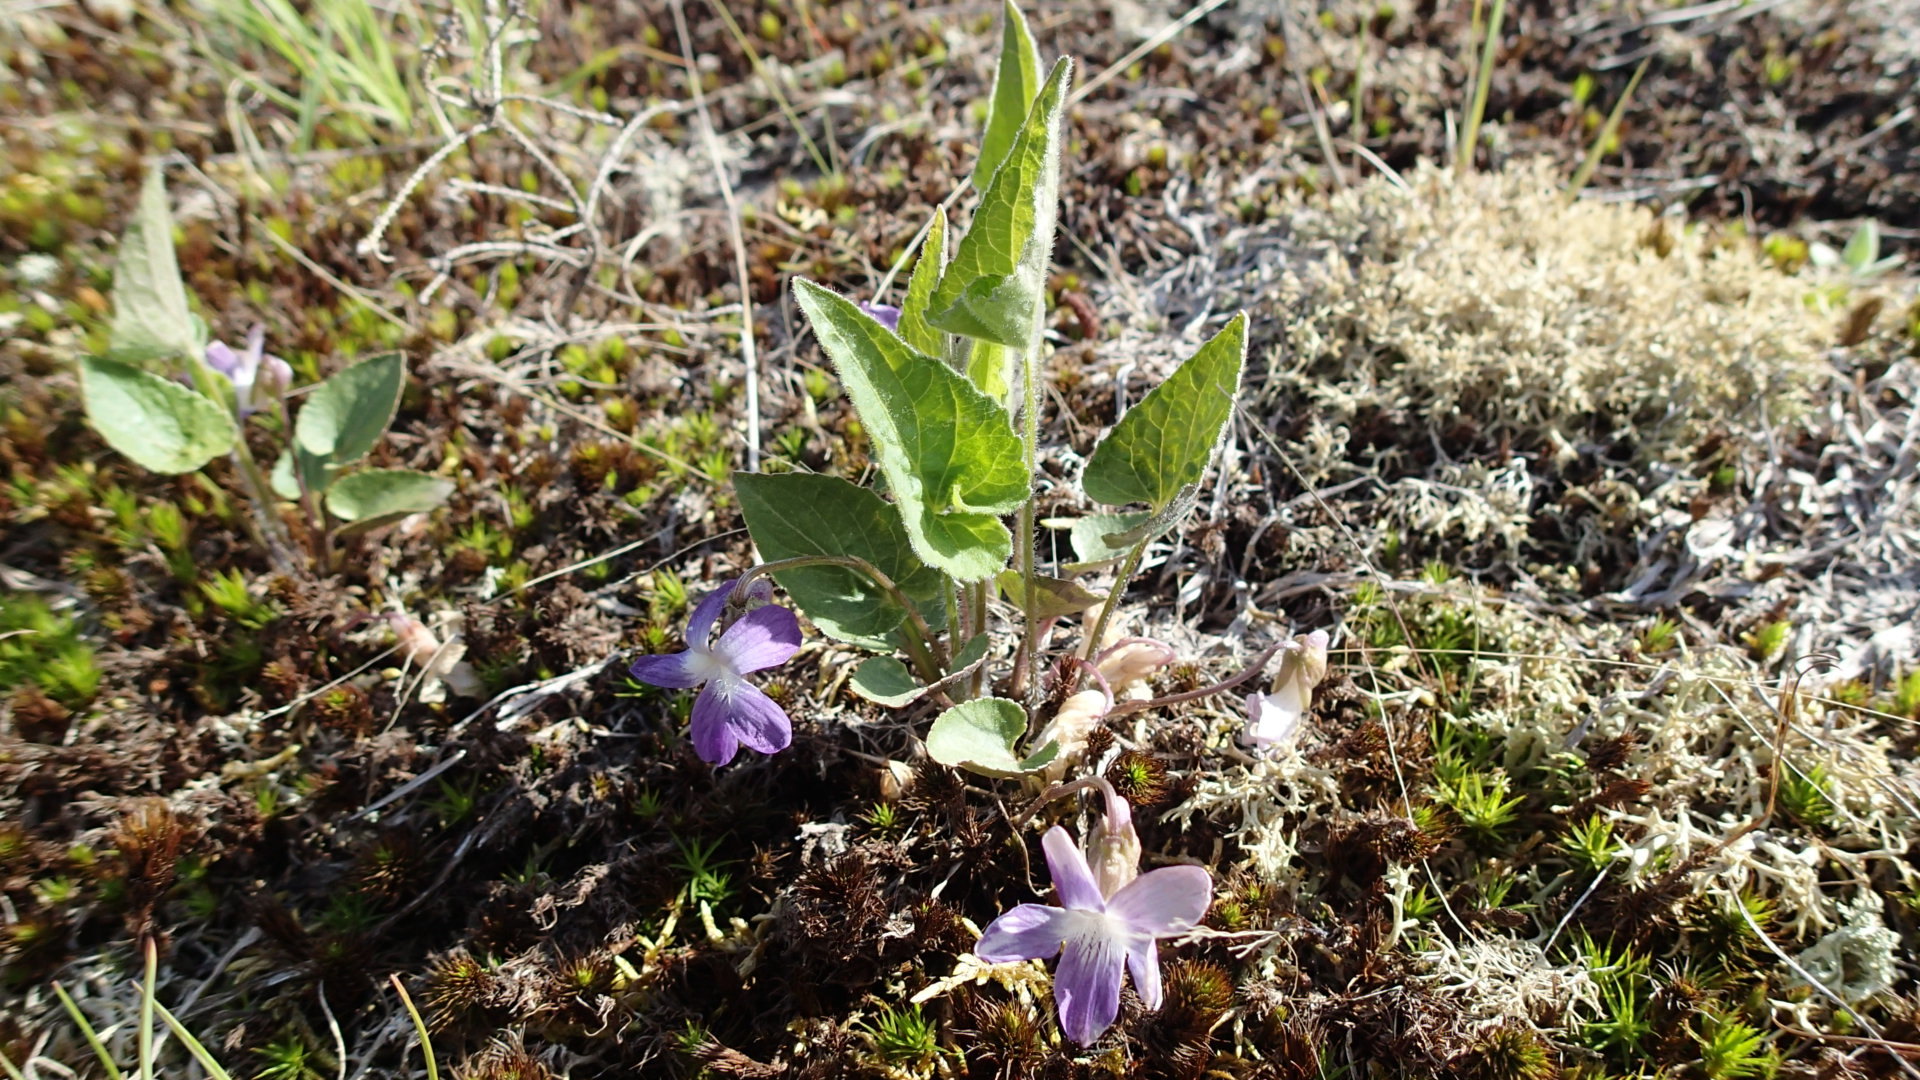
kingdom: Plantae
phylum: Tracheophyta
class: Magnoliopsida
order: Malpighiales
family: Violaceae
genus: Viola
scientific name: Viola novae-angliae
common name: New england blue violet
